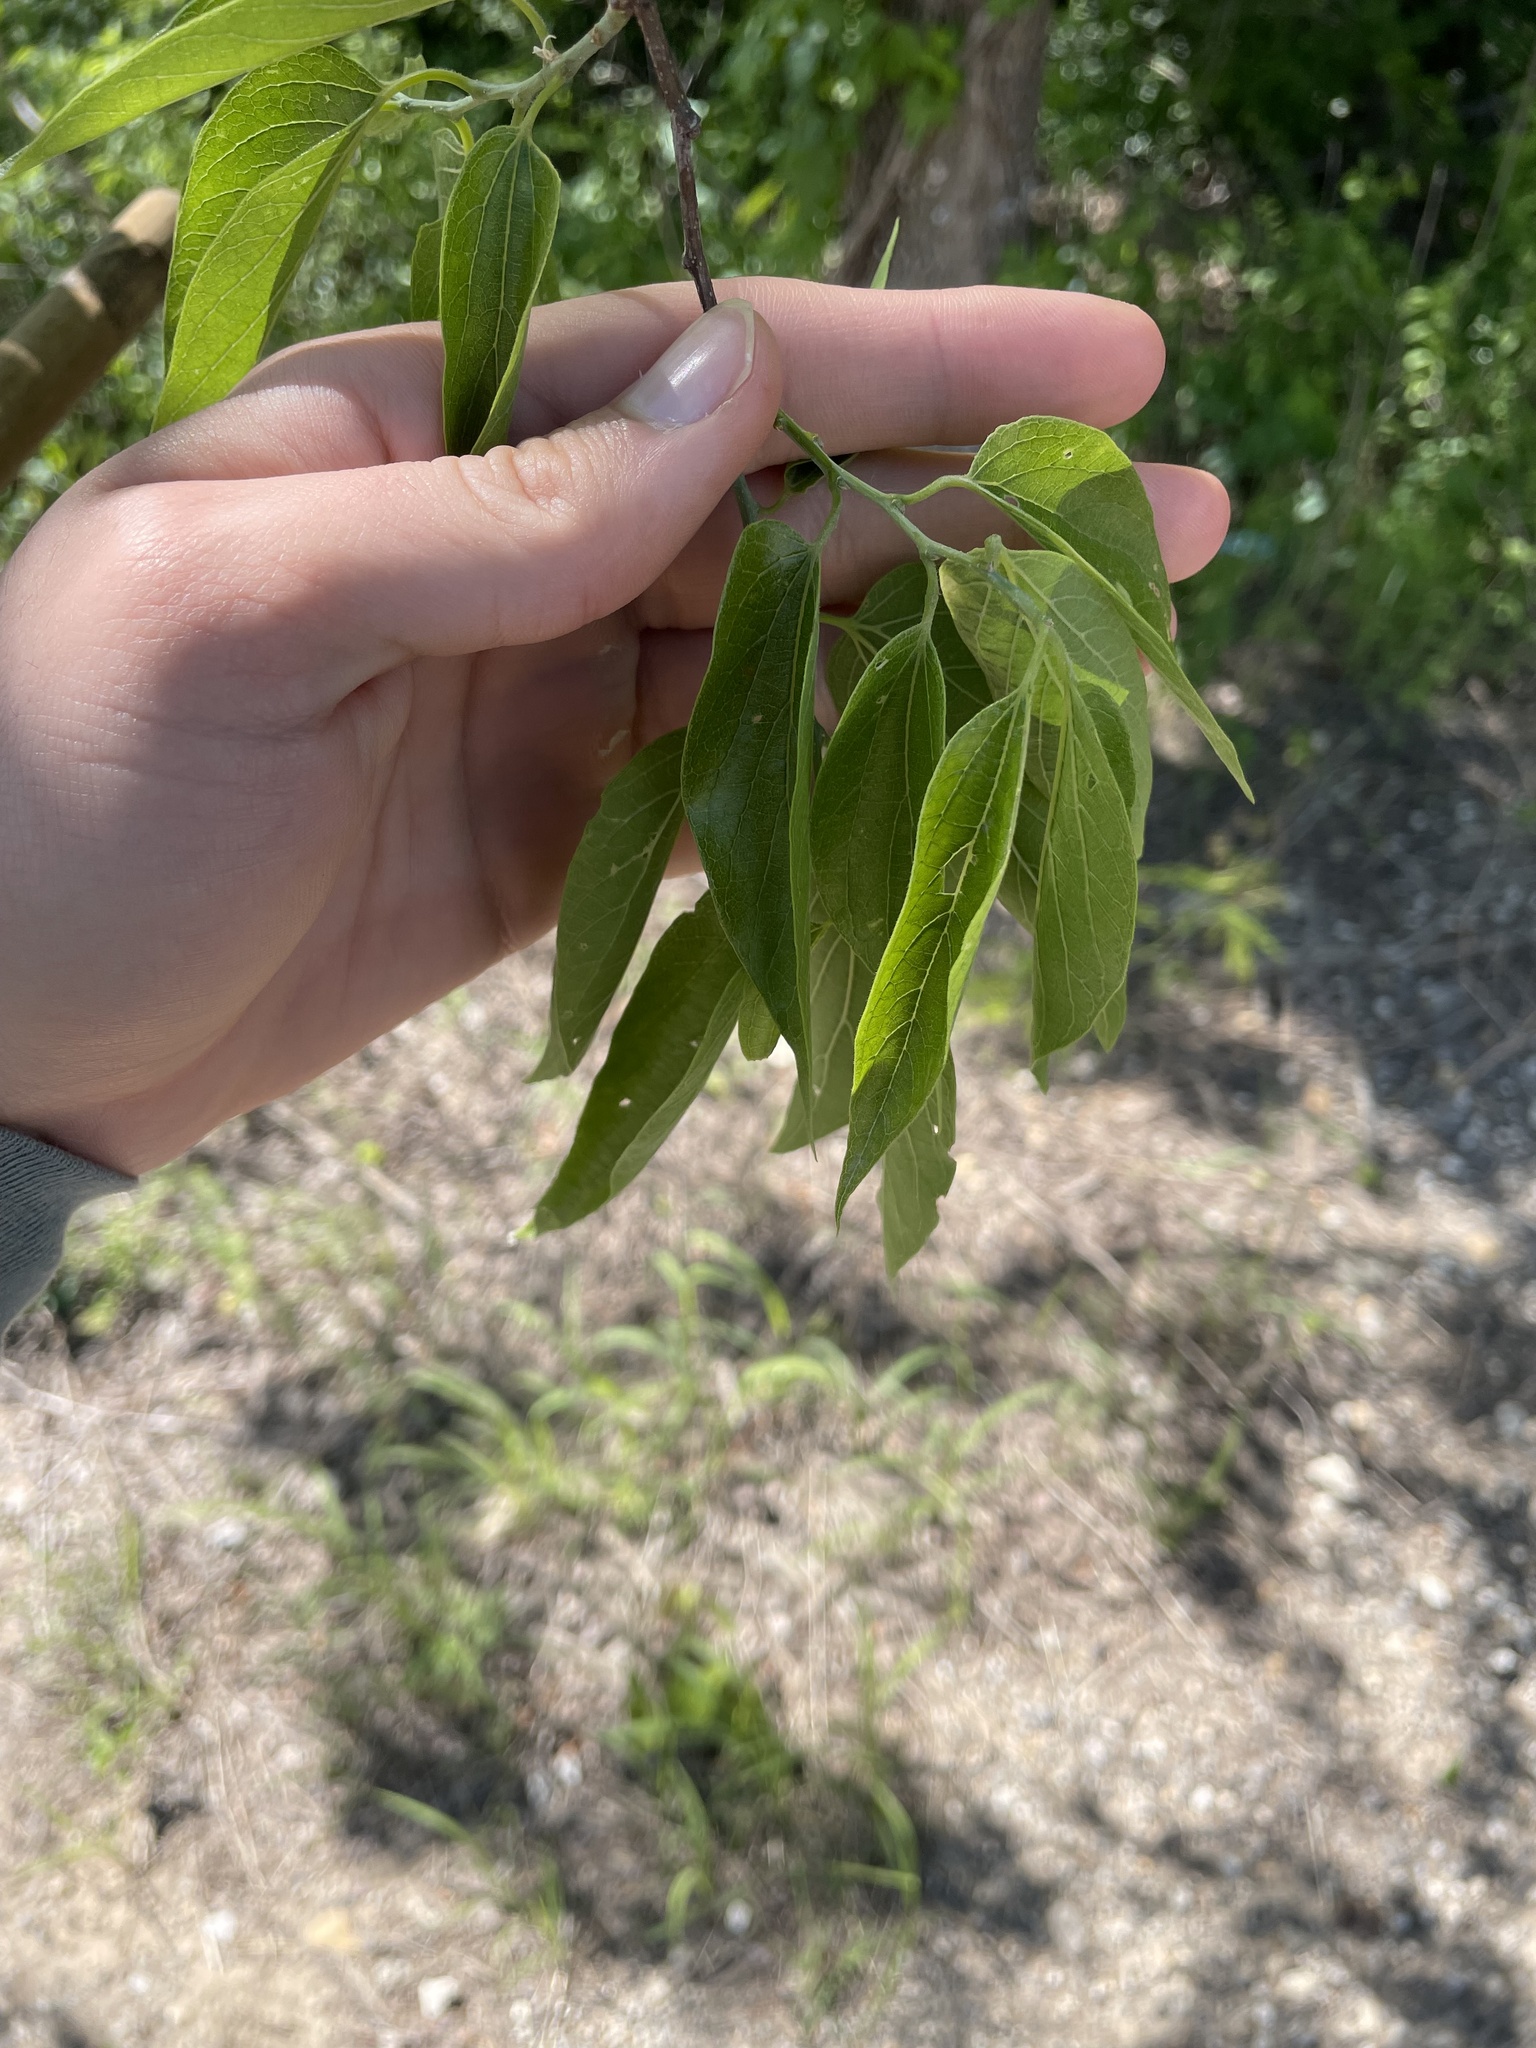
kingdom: Plantae
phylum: Tracheophyta
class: Magnoliopsida
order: Rosales
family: Cannabaceae
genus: Celtis
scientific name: Celtis laevigata
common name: Sugarberry
